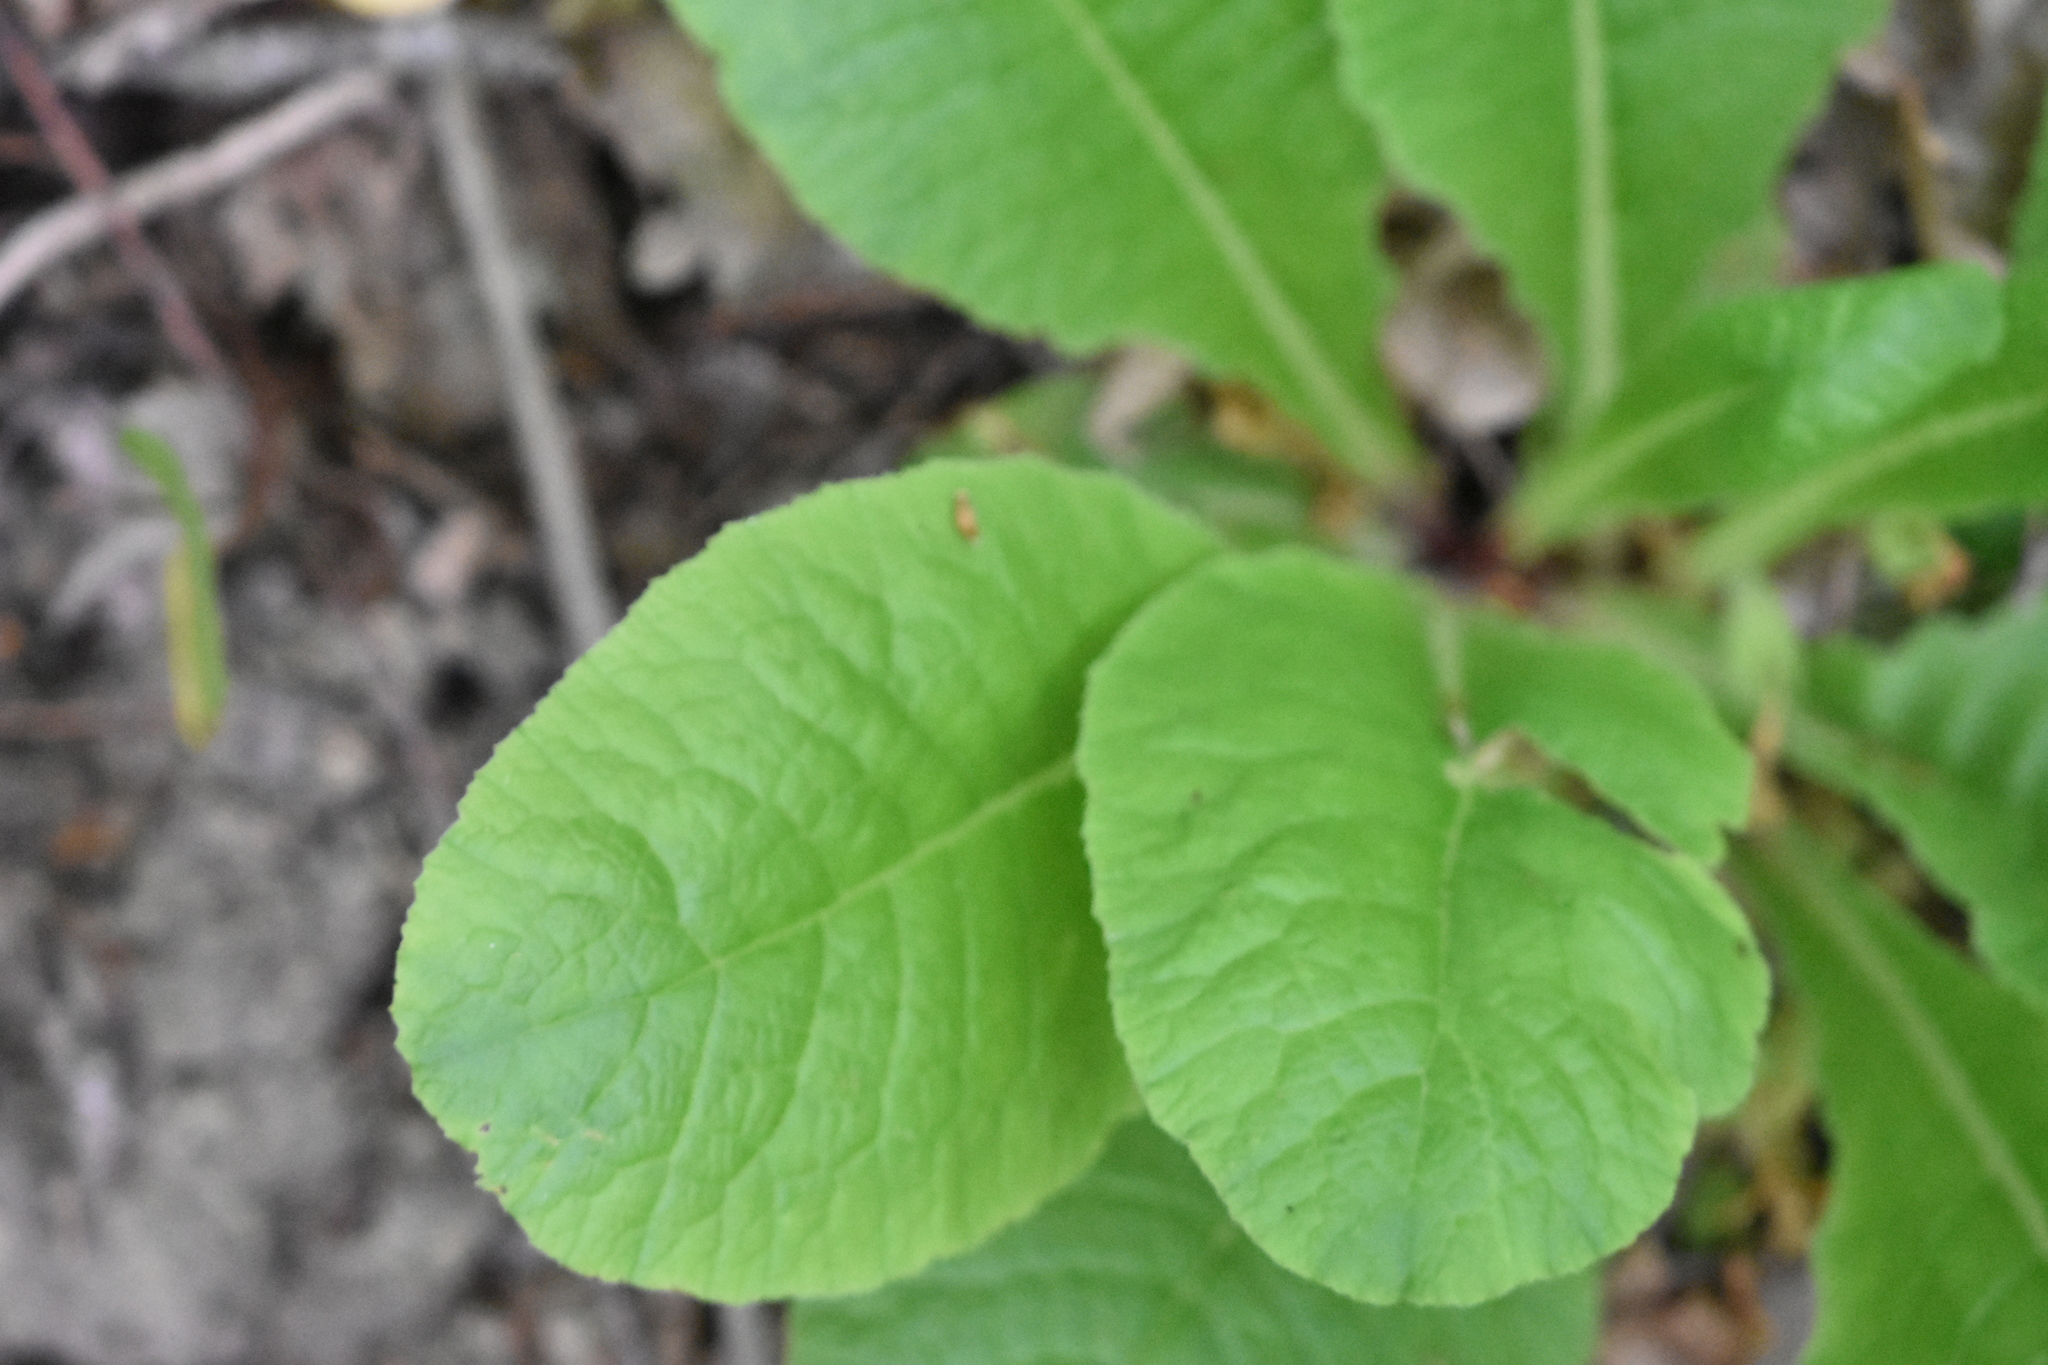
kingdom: Plantae
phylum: Tracheophyta
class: Magnoliopsida
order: Ericales
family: Primulaceae
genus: Primula
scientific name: Primula vulgaris
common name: Primrose
